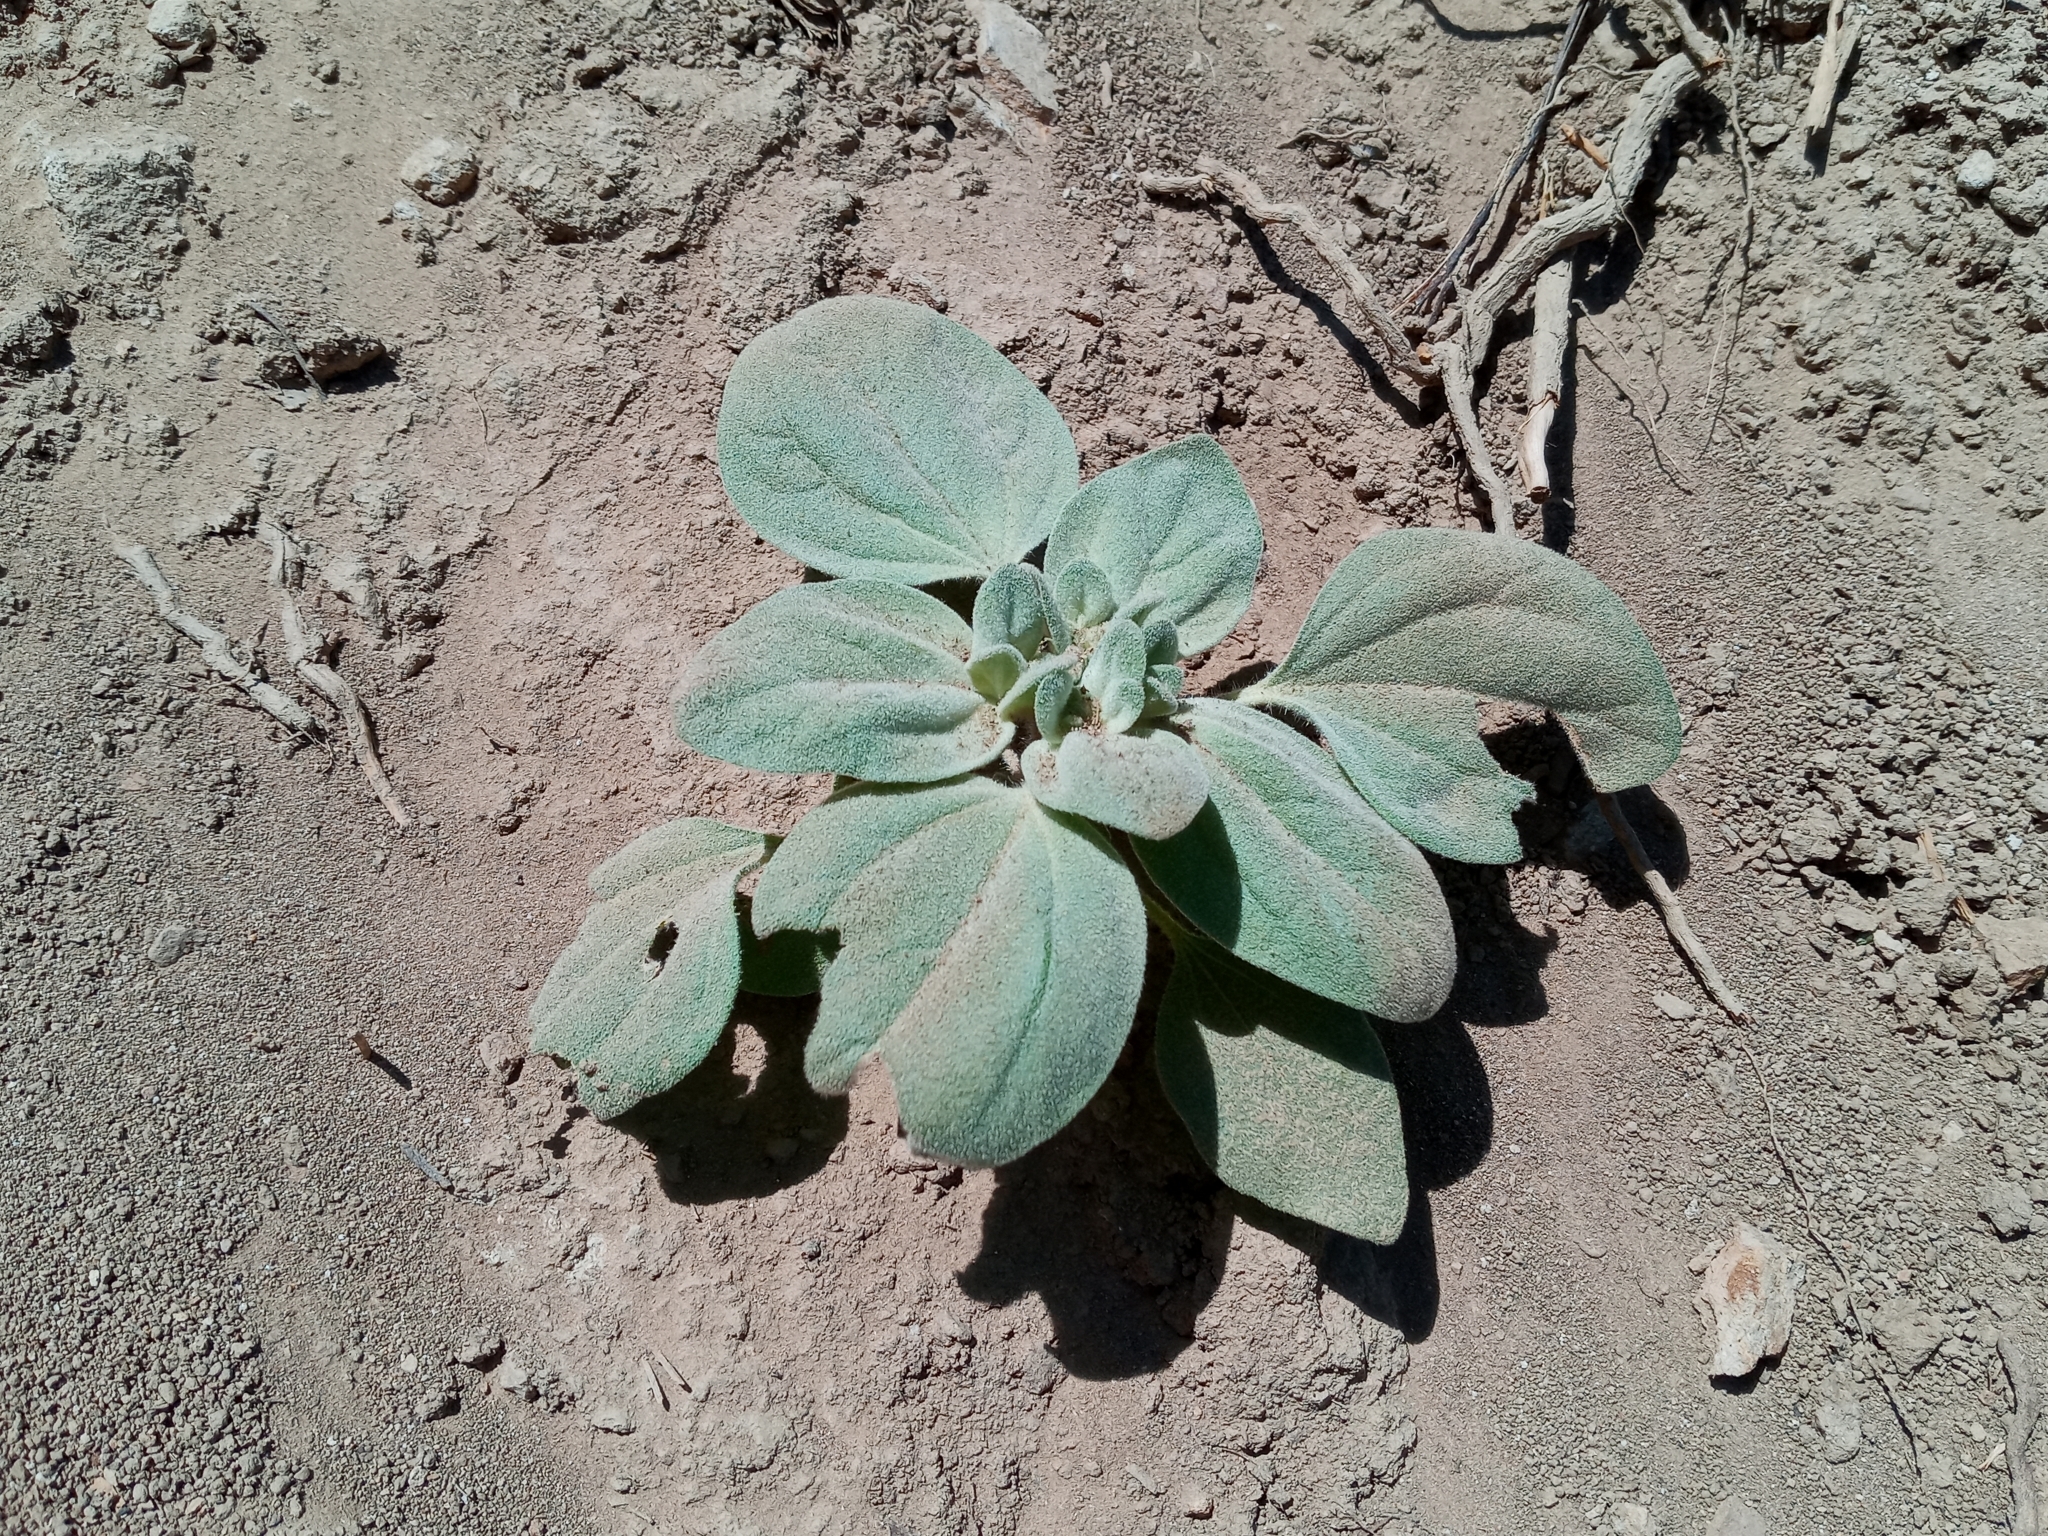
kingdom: Plantae
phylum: Tracheophyta
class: Magnoliopsida
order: Malpighiales
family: Euphorbiaceae
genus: Croton
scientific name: Croton setiger
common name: Dove weed
